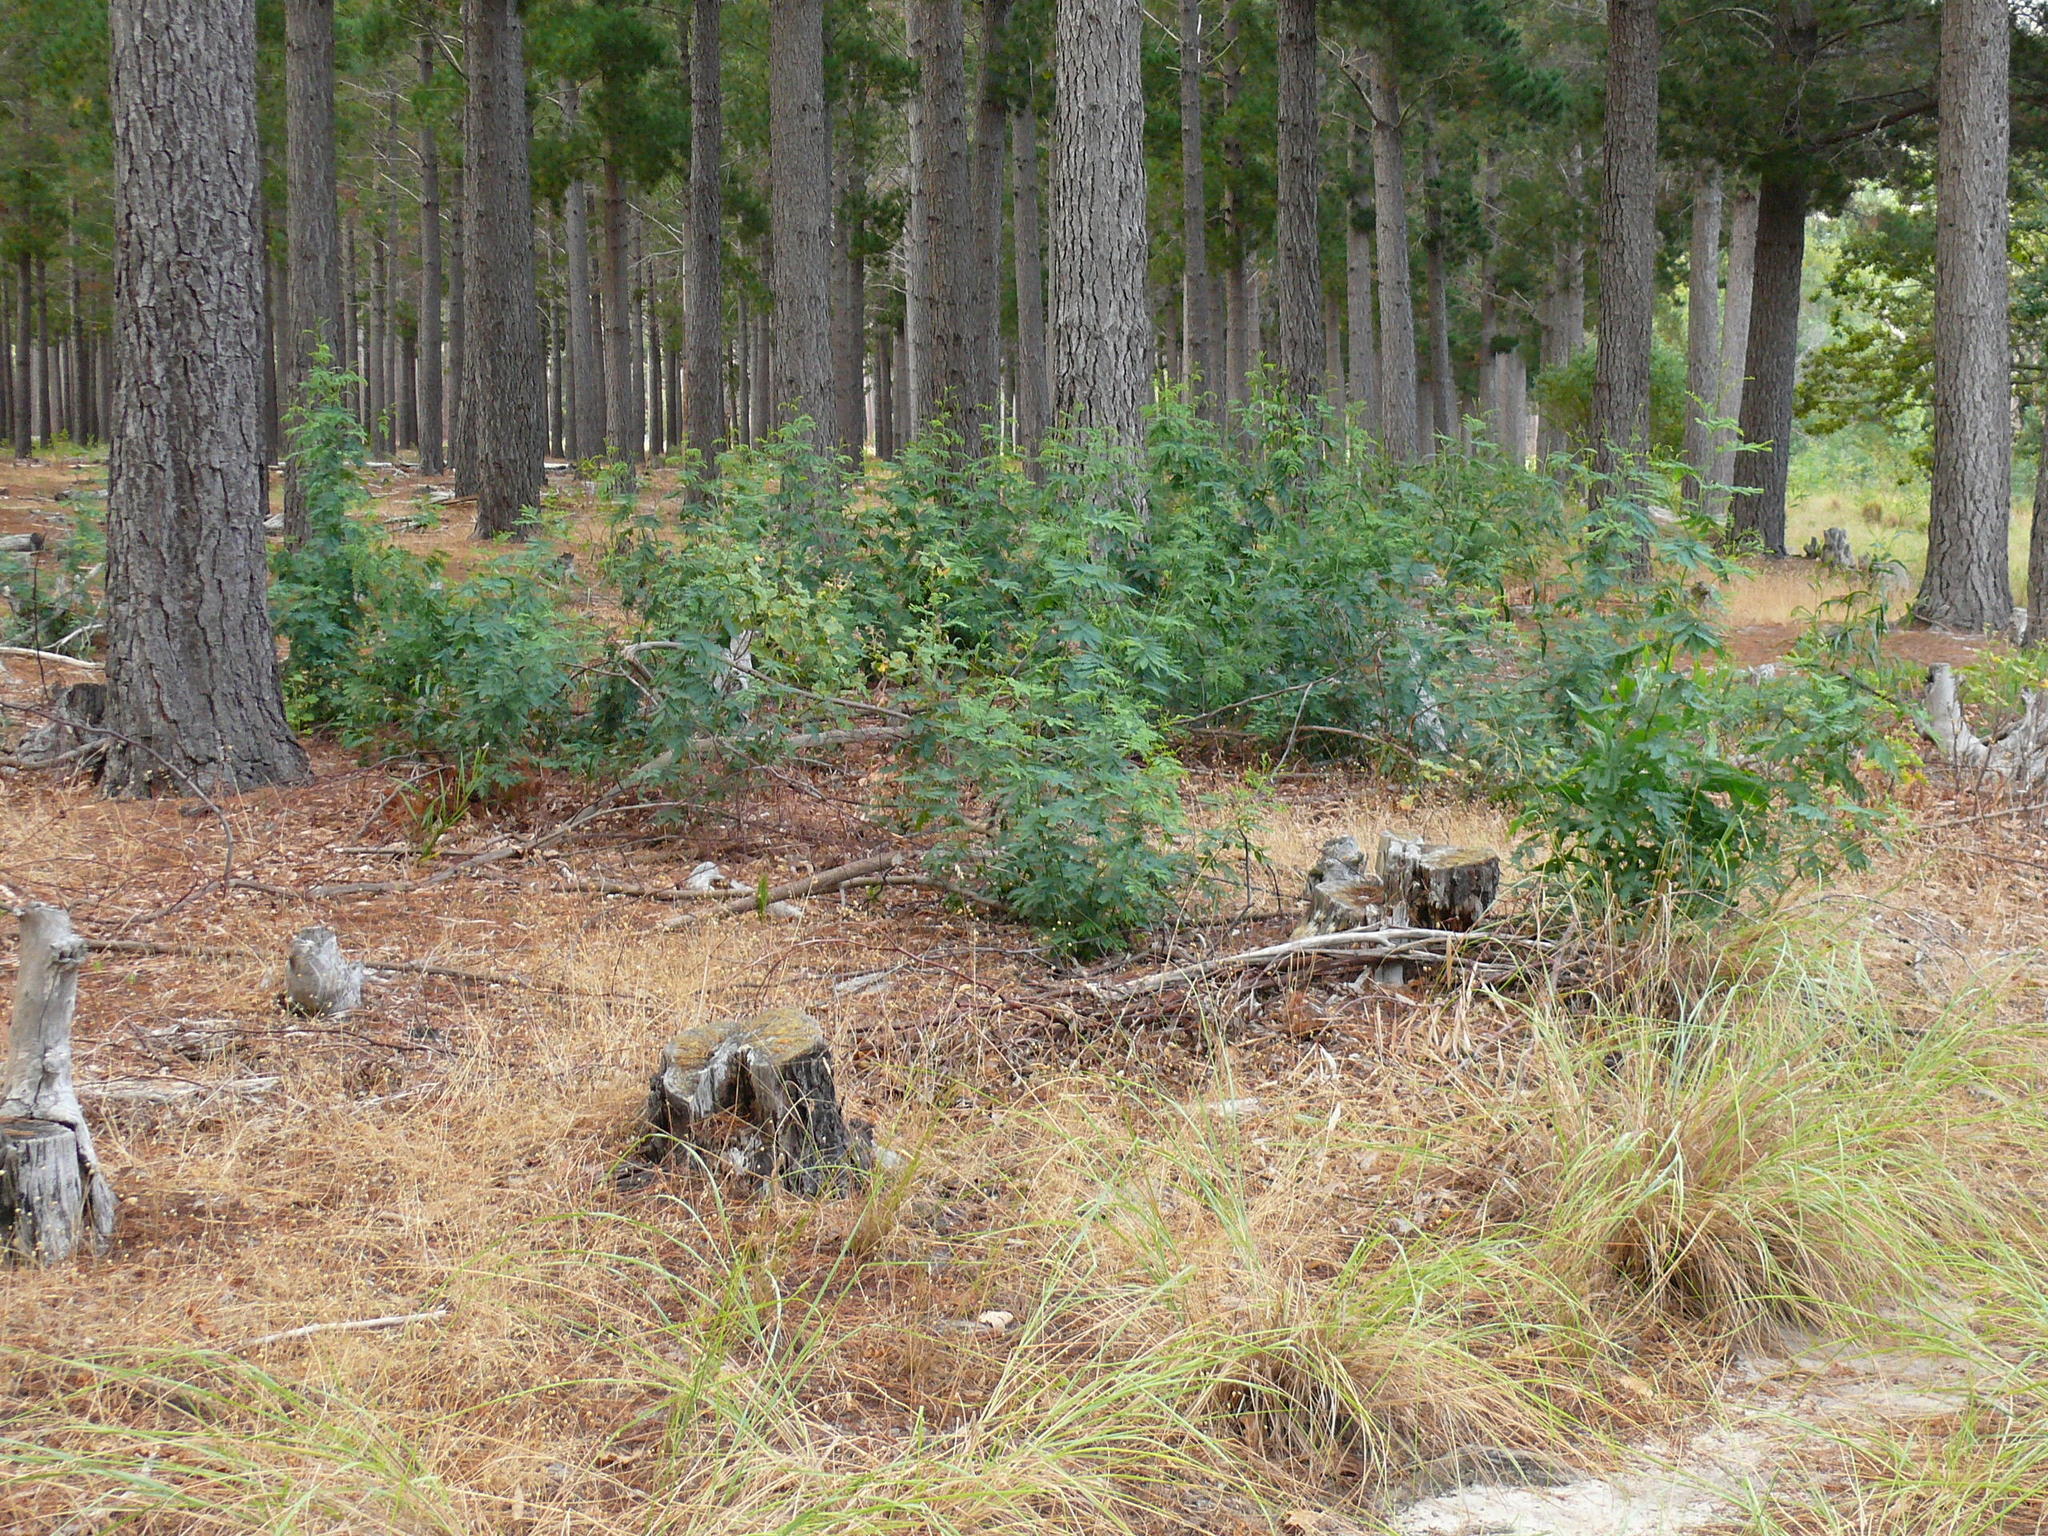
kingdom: Plantae
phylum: Tracheophyta
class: Magnoliopsida
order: Fabales
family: Fabaceae
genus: Acacia
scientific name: Acacia implexa
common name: Black wattle
